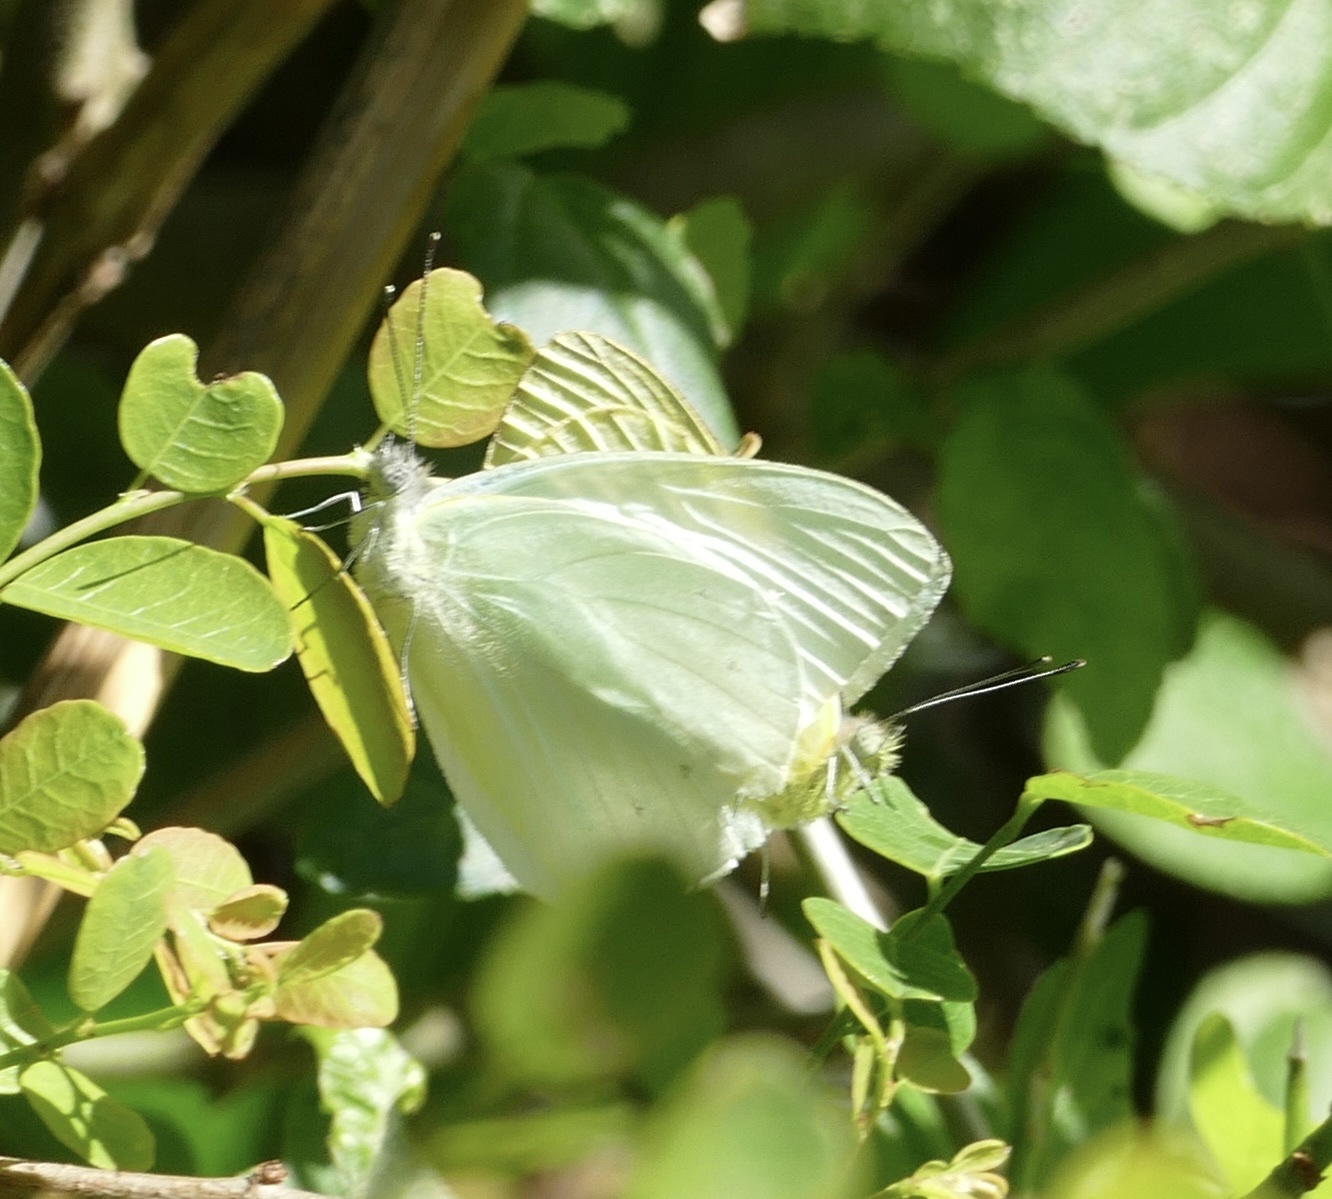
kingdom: Animalia
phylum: Arthropoda
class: Insecta
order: Lepidoptera
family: Pieridae
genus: Dixeia
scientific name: Dixeia pigea
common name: Ant-heap small white
